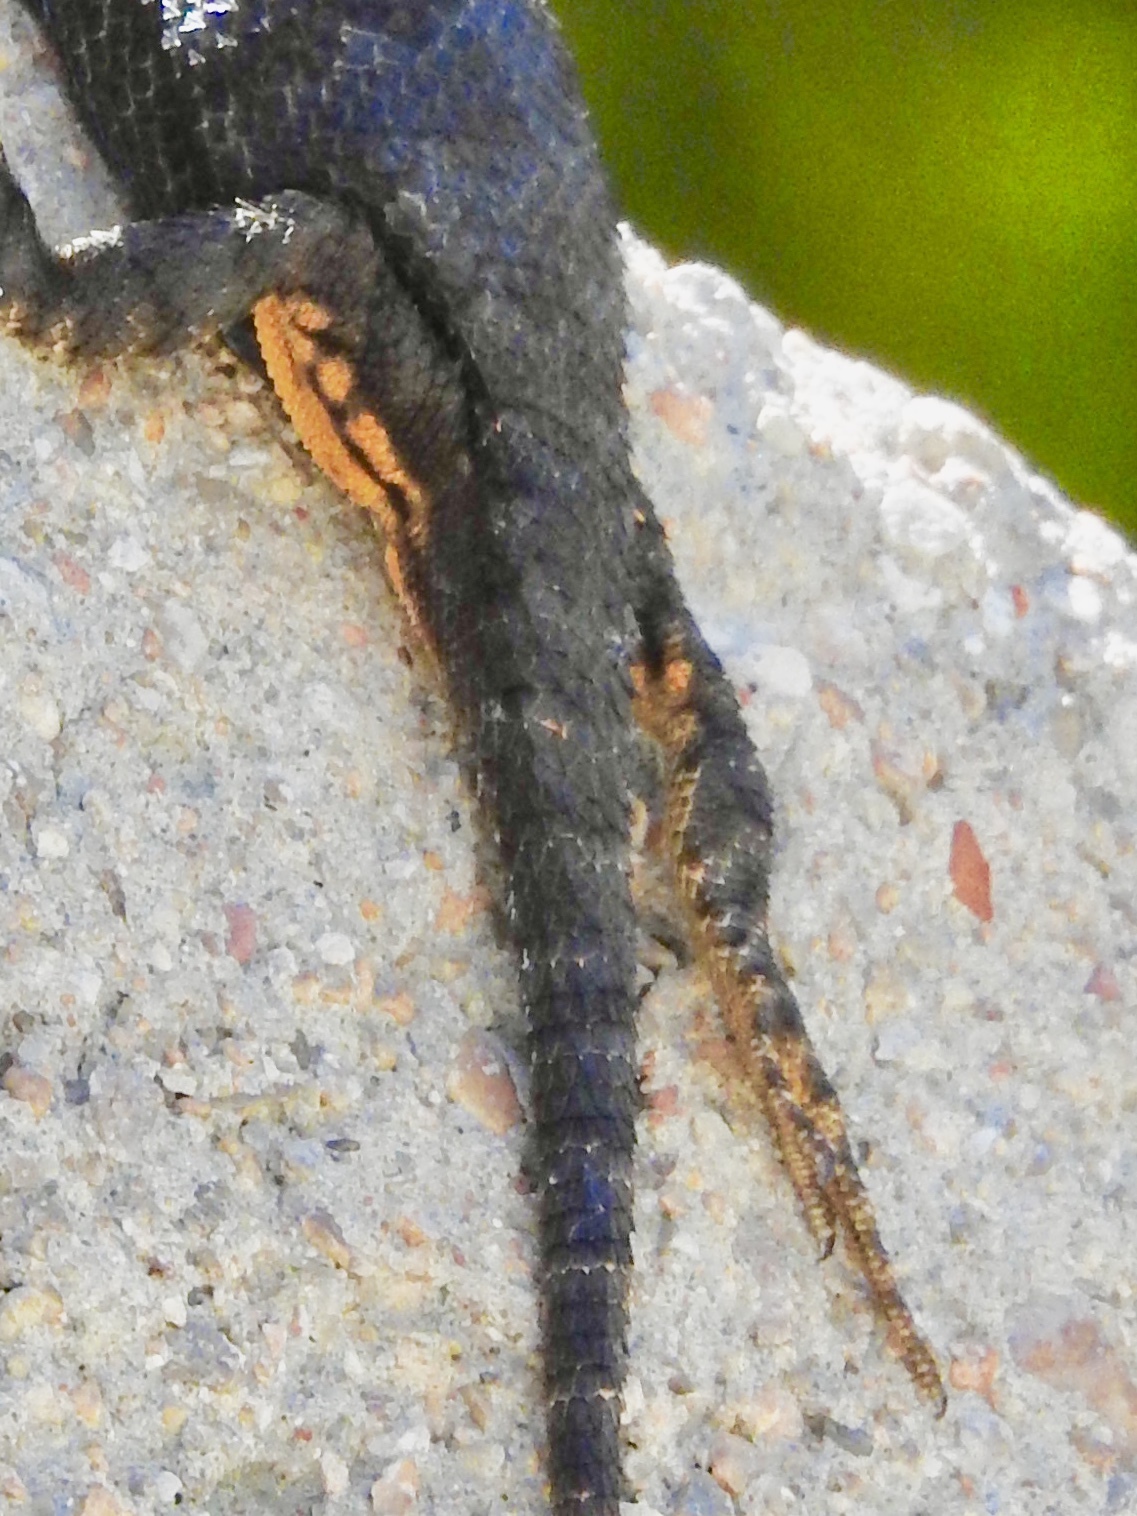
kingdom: Animalia
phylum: Chordata
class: Squamata
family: Phrynosomatidae
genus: Sceloporus
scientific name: Sceloporus occidentalis
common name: Western fence lizard
